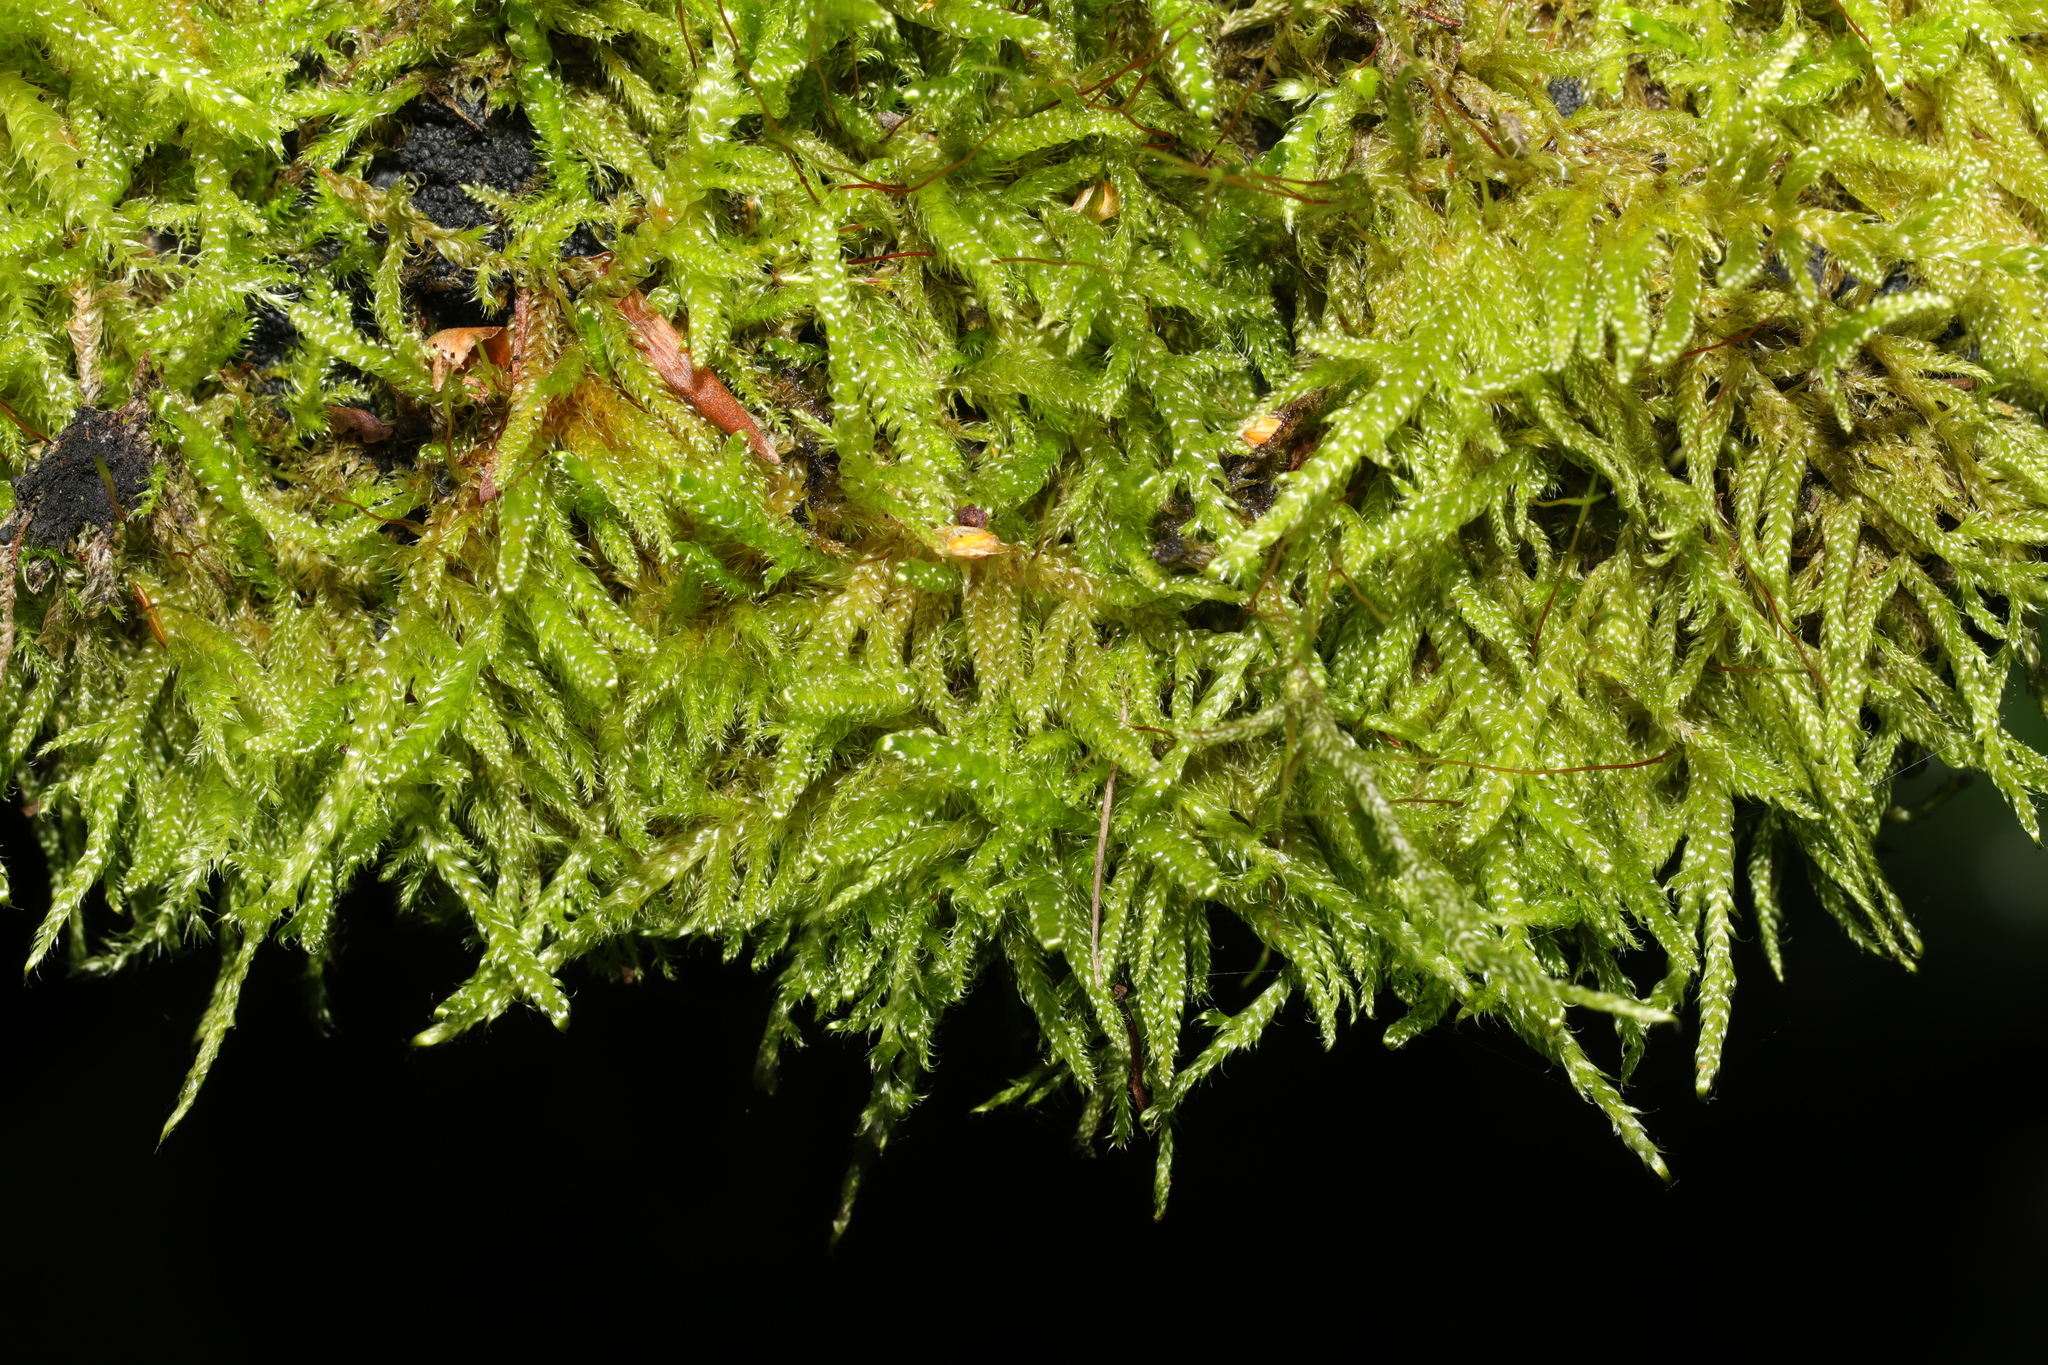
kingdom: Plantae
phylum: Bryophyta
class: Bryopsida
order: Hypnales
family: Hypnaceae
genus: Hypnum
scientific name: Hypnum cupressiforme
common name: Cypress-leaved plait-moss
